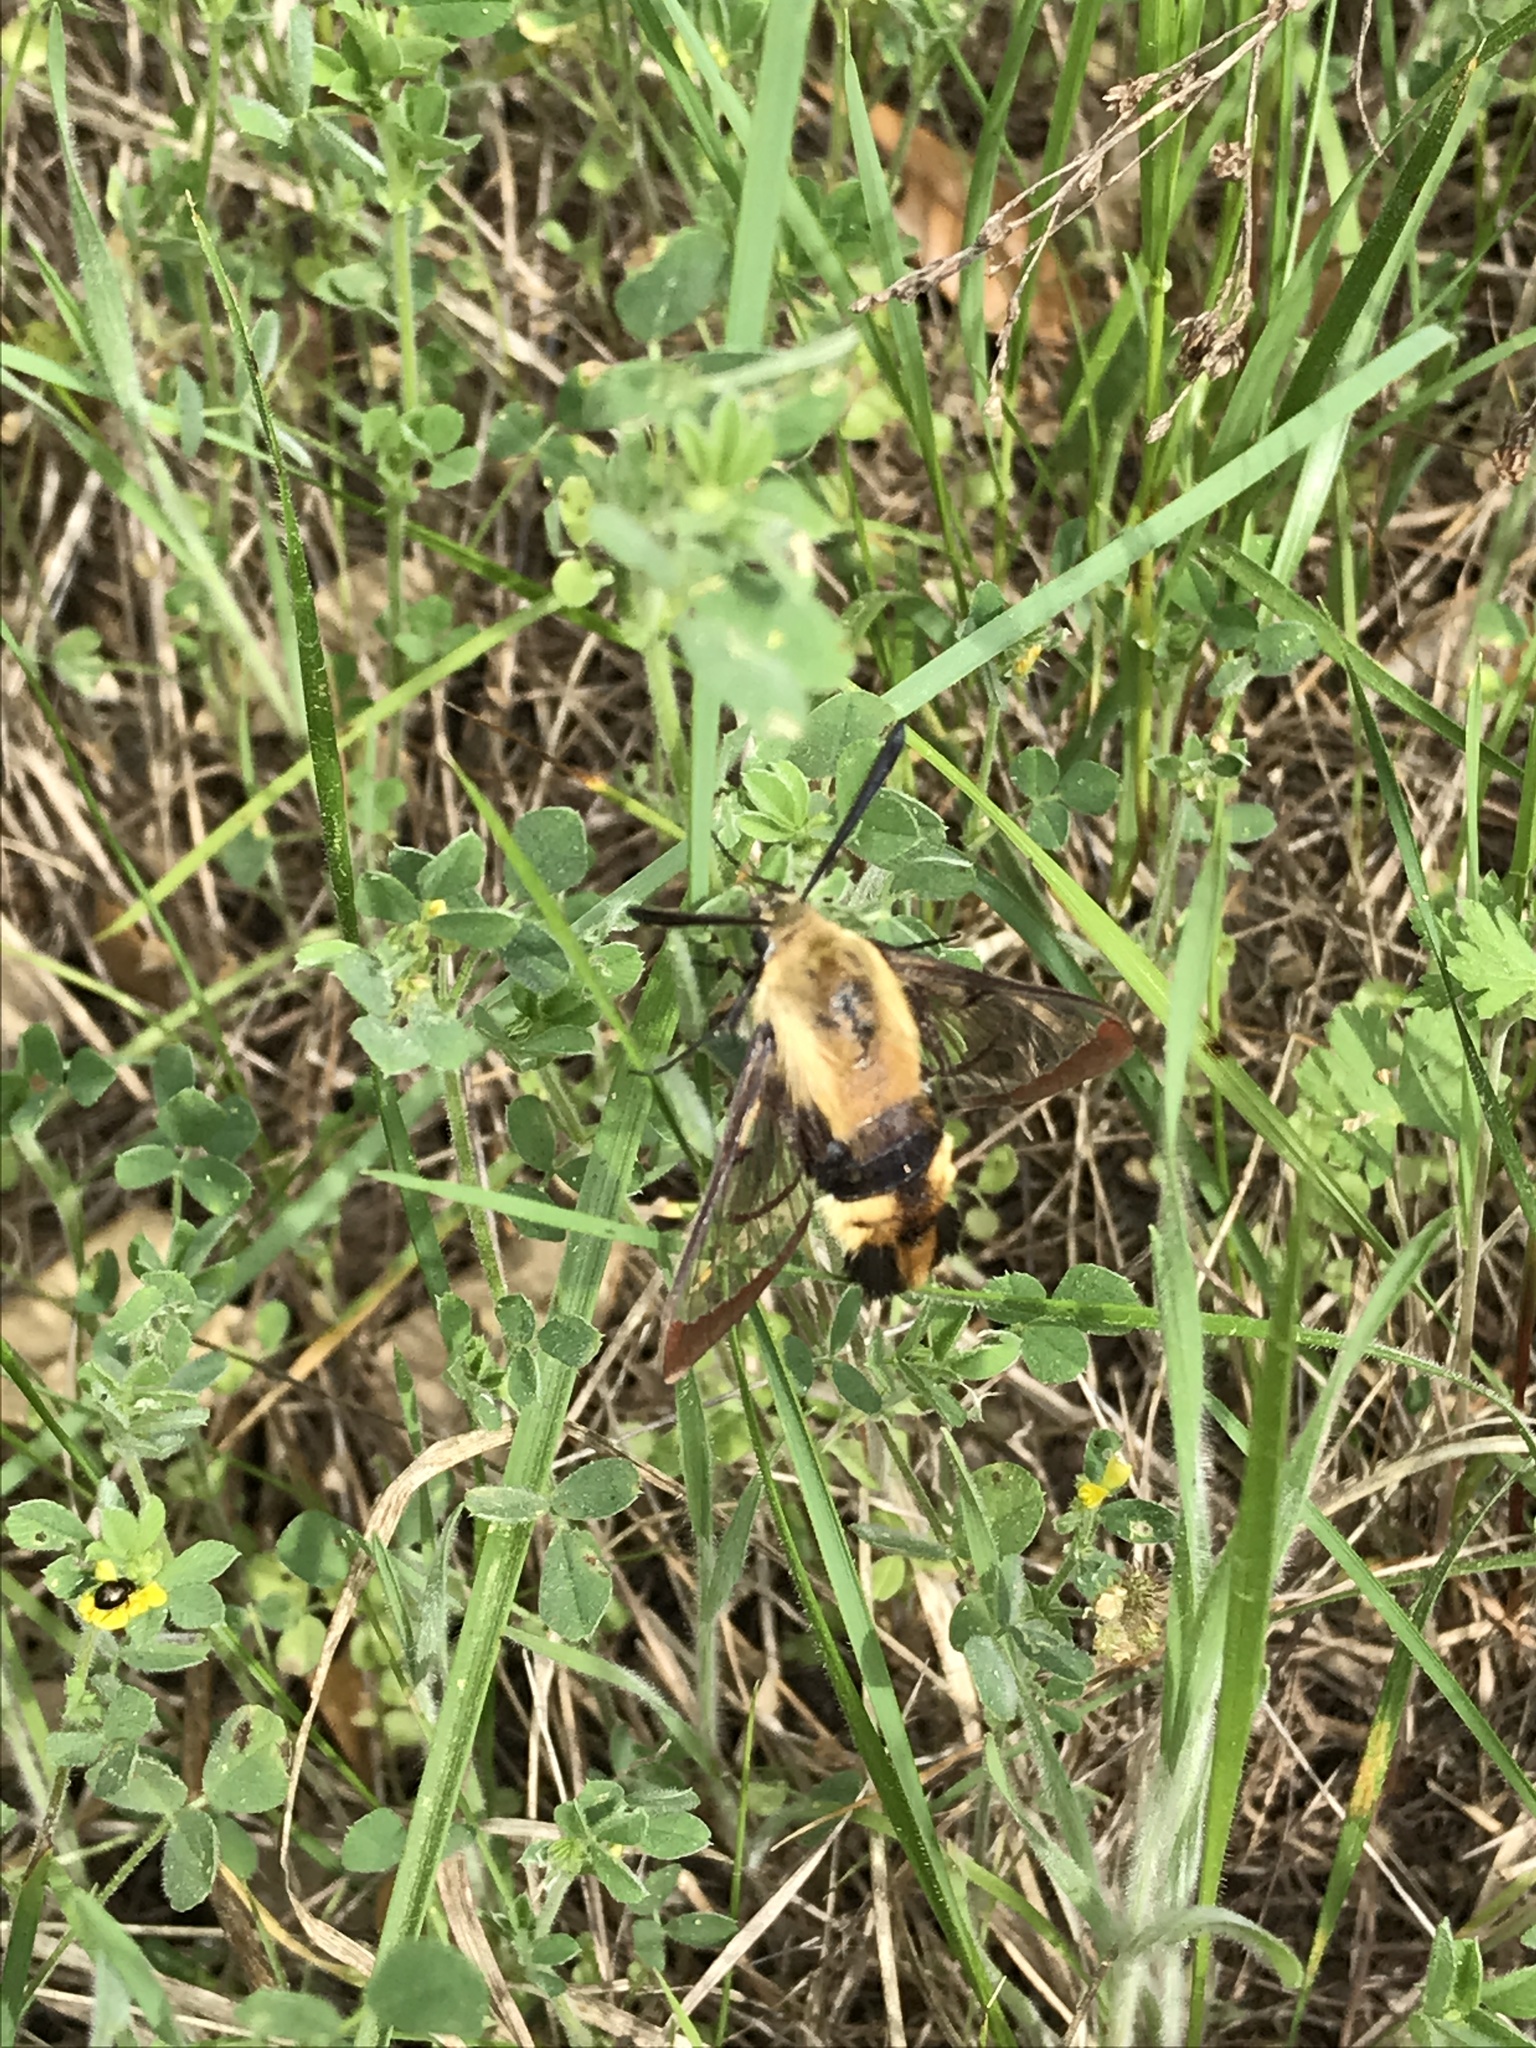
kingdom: Animalia
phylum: Arthropoda
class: Insecta
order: Lepidoptera
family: Sphingidae
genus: Hemaris
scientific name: Hemaris diffinis
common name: Bumblebee moth
